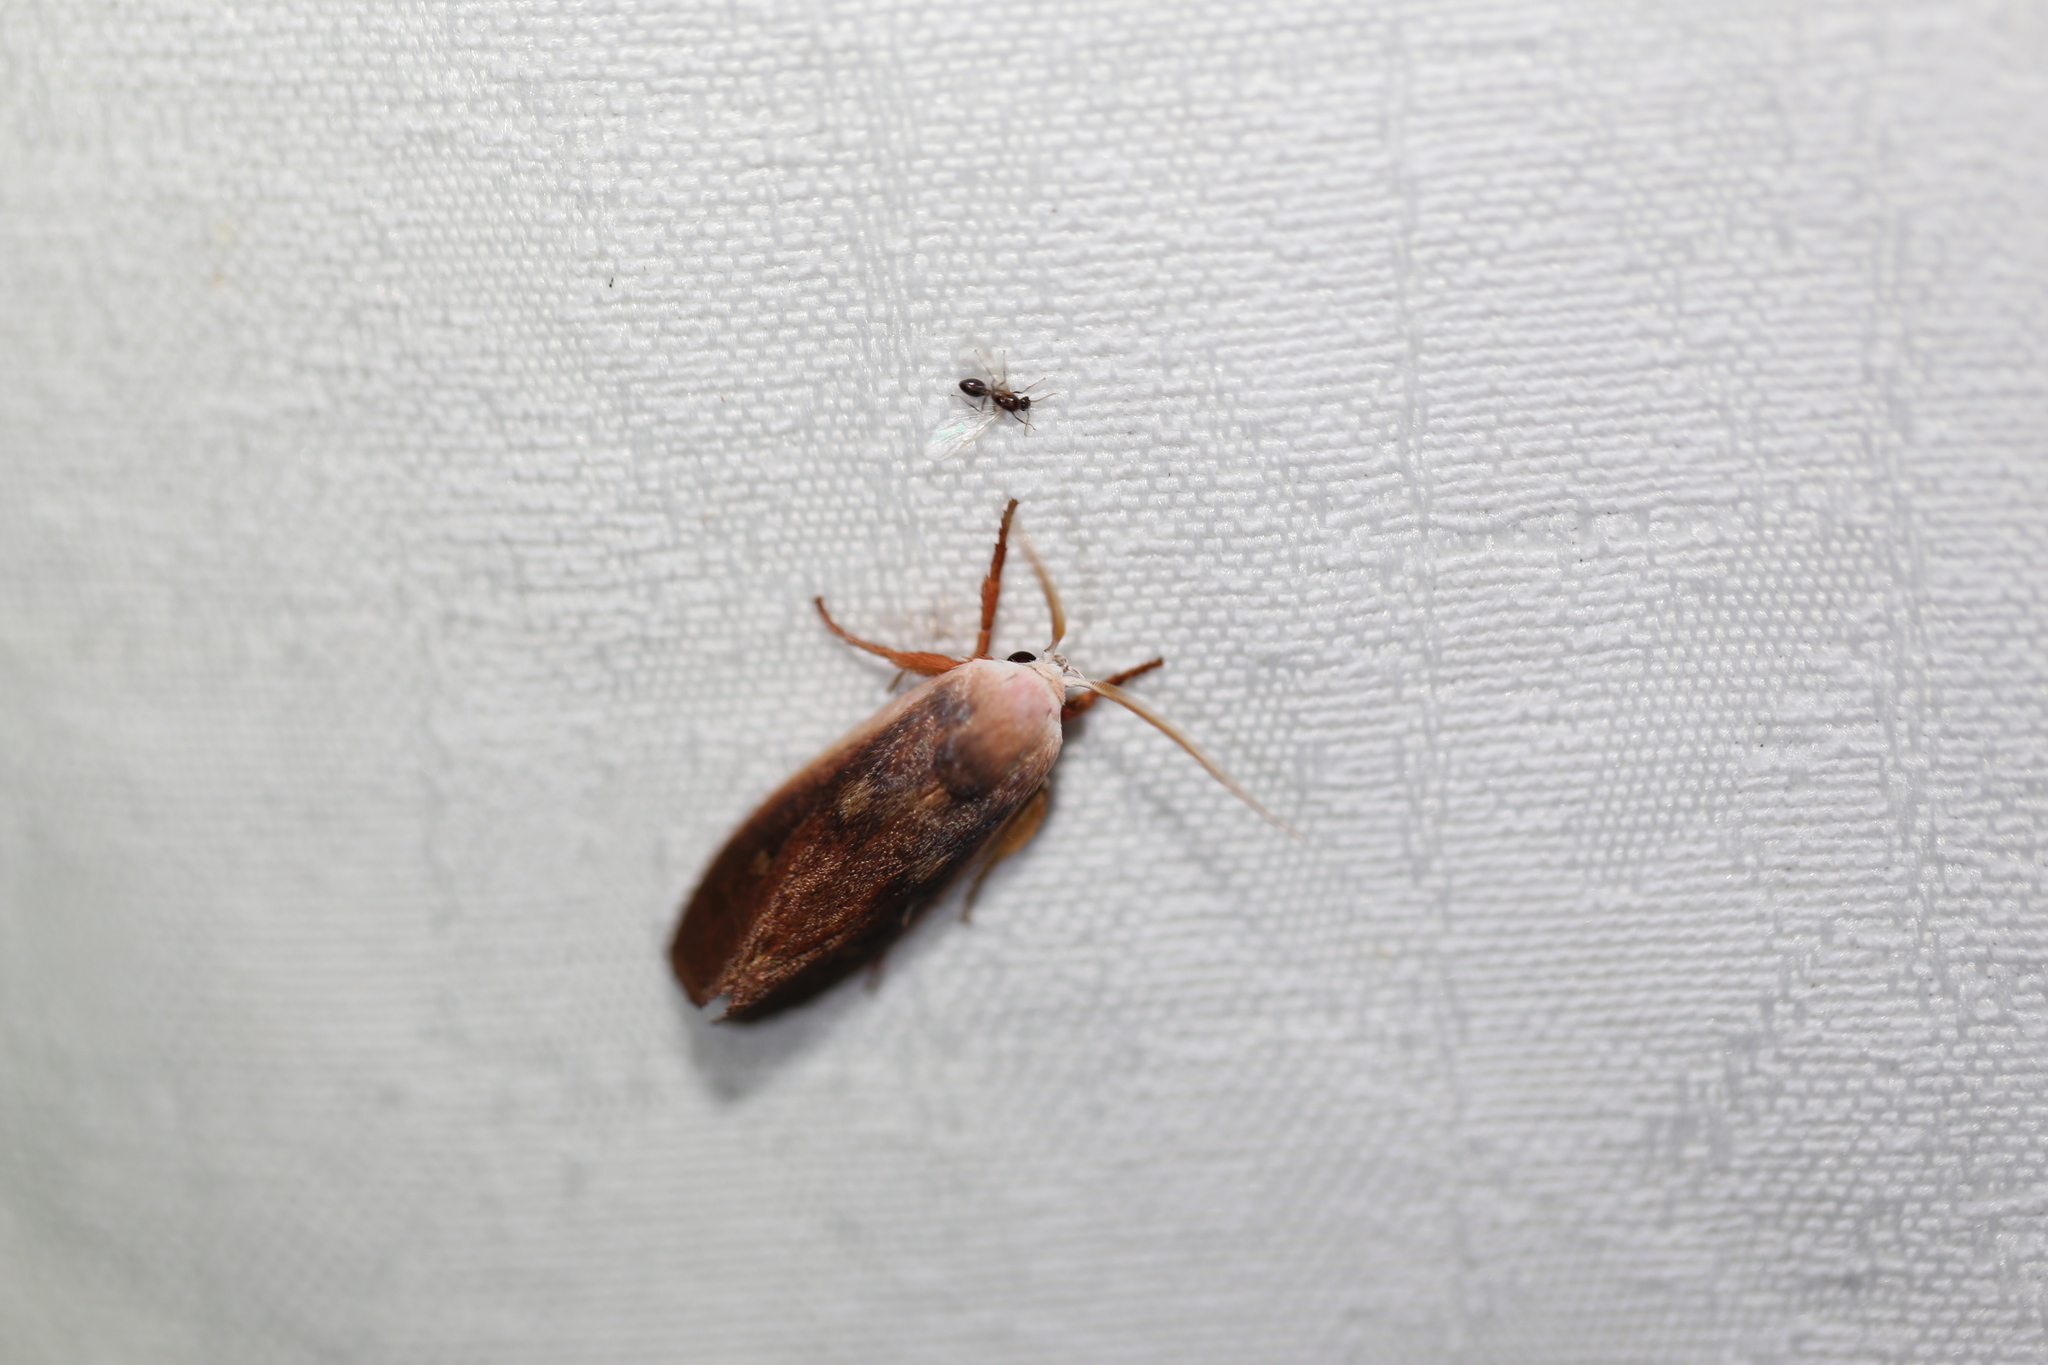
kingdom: Animalia
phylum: Arthropoda
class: Insecta
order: Lepidoptera
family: Xyloryctidae
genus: Cryptophasa
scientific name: Cryptophasa rubescens
